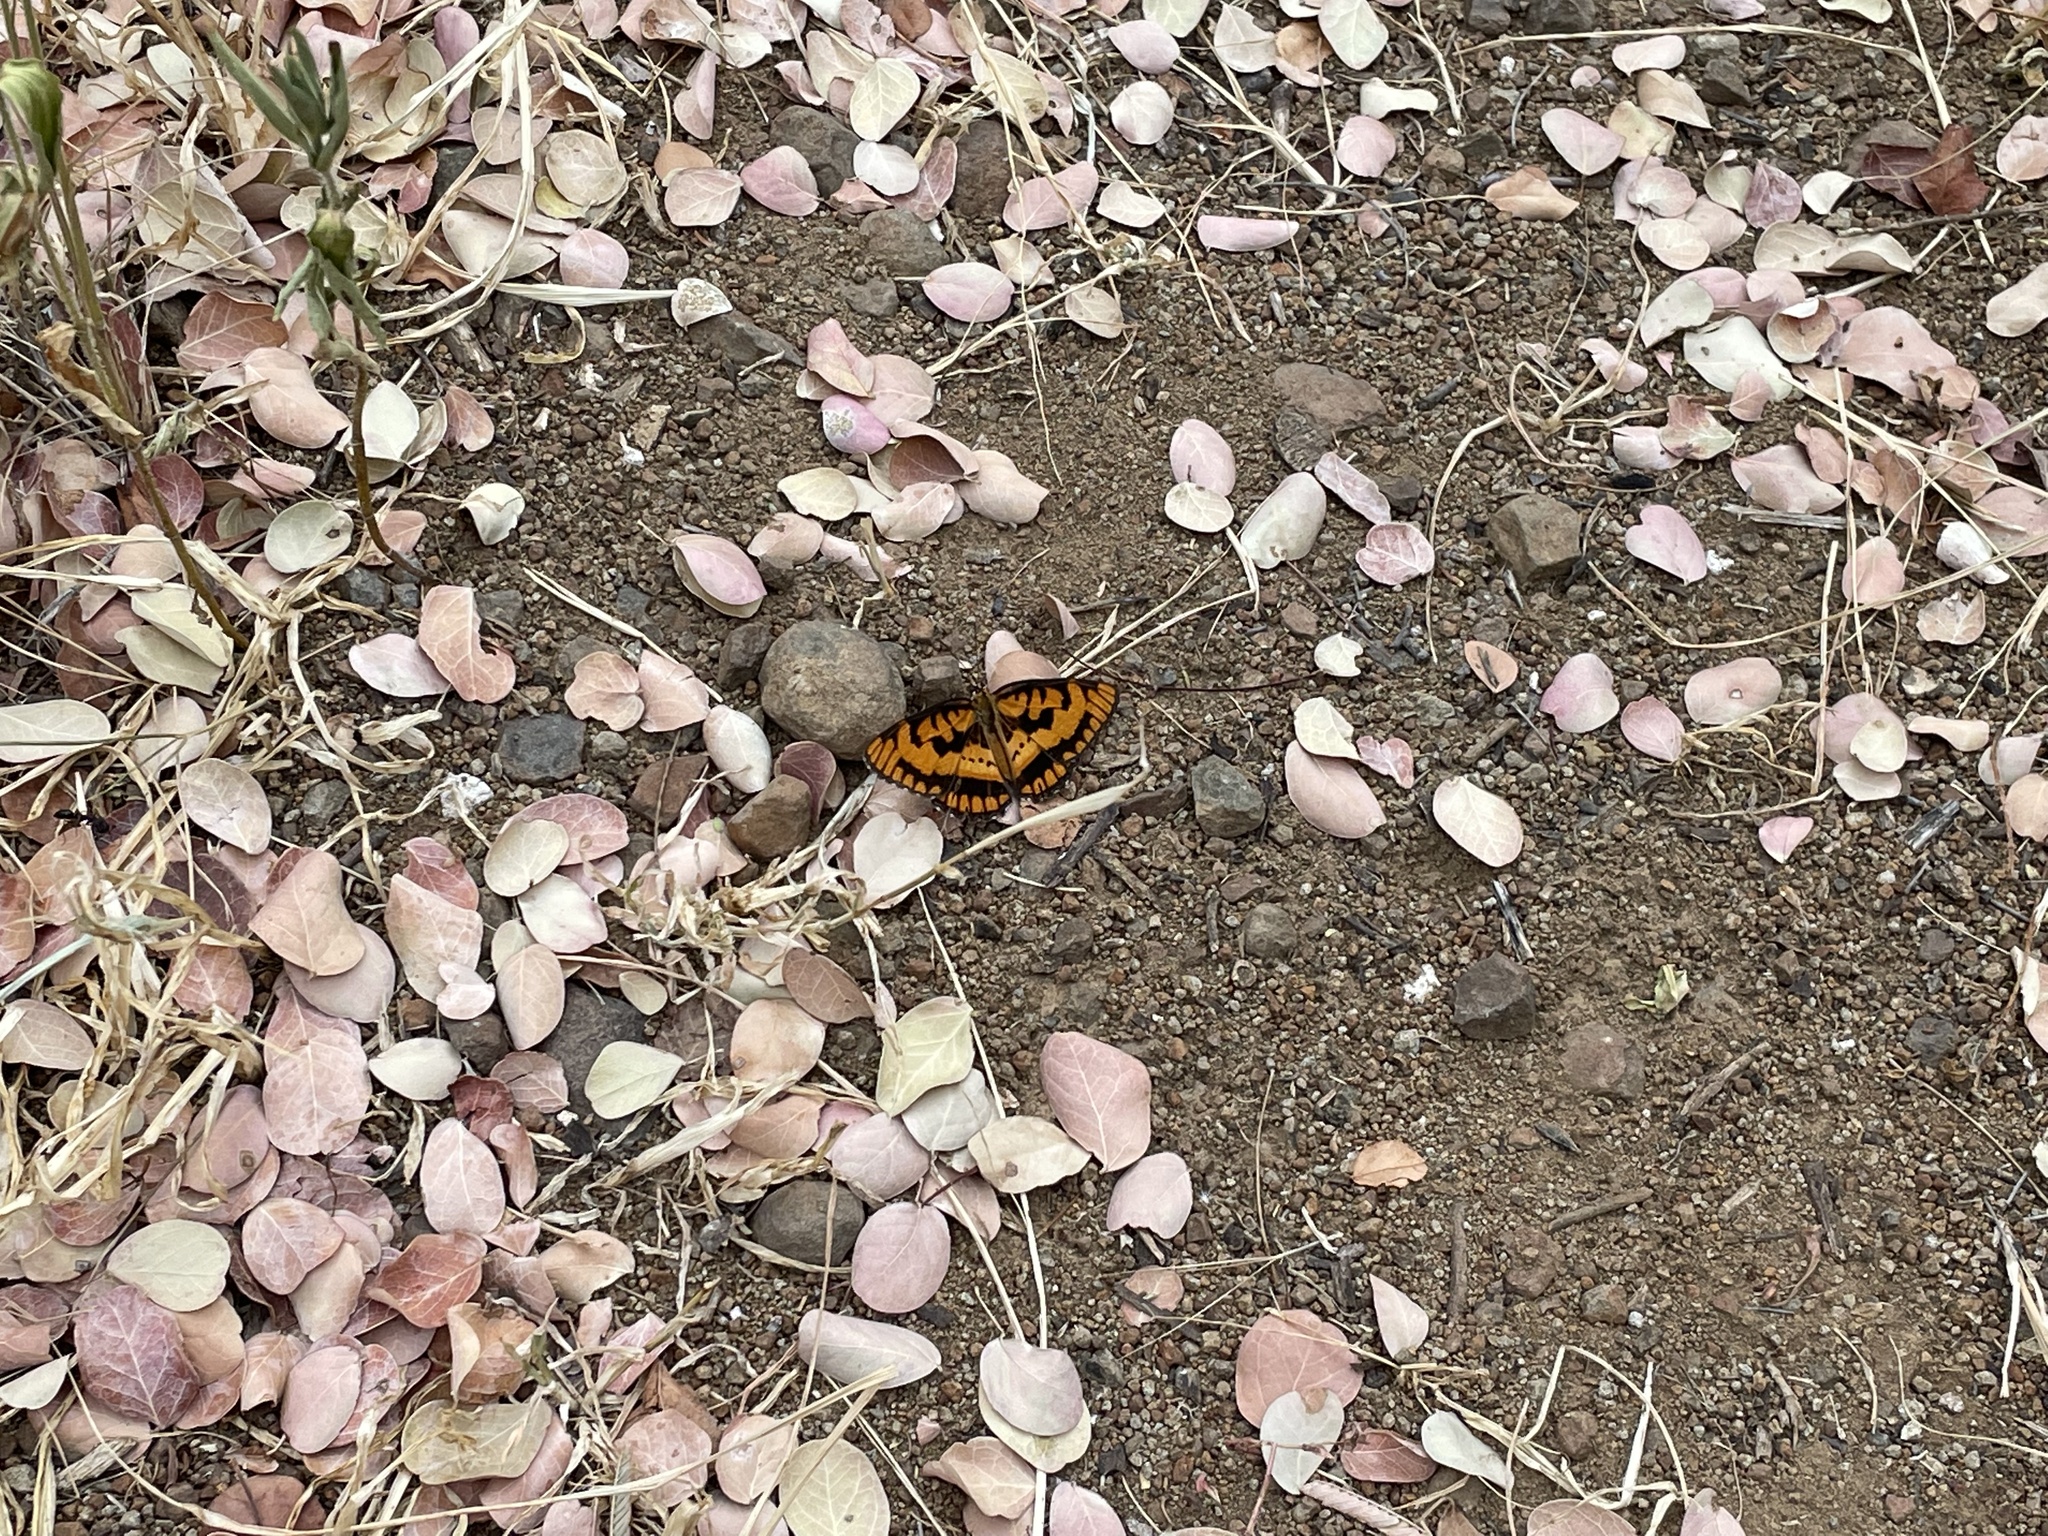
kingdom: Animalia
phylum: Arthropoda
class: Insecta
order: Lepidoptera
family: Nymphalidae
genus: Byblia
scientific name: Byblia ilithyia
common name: Spotted joker
